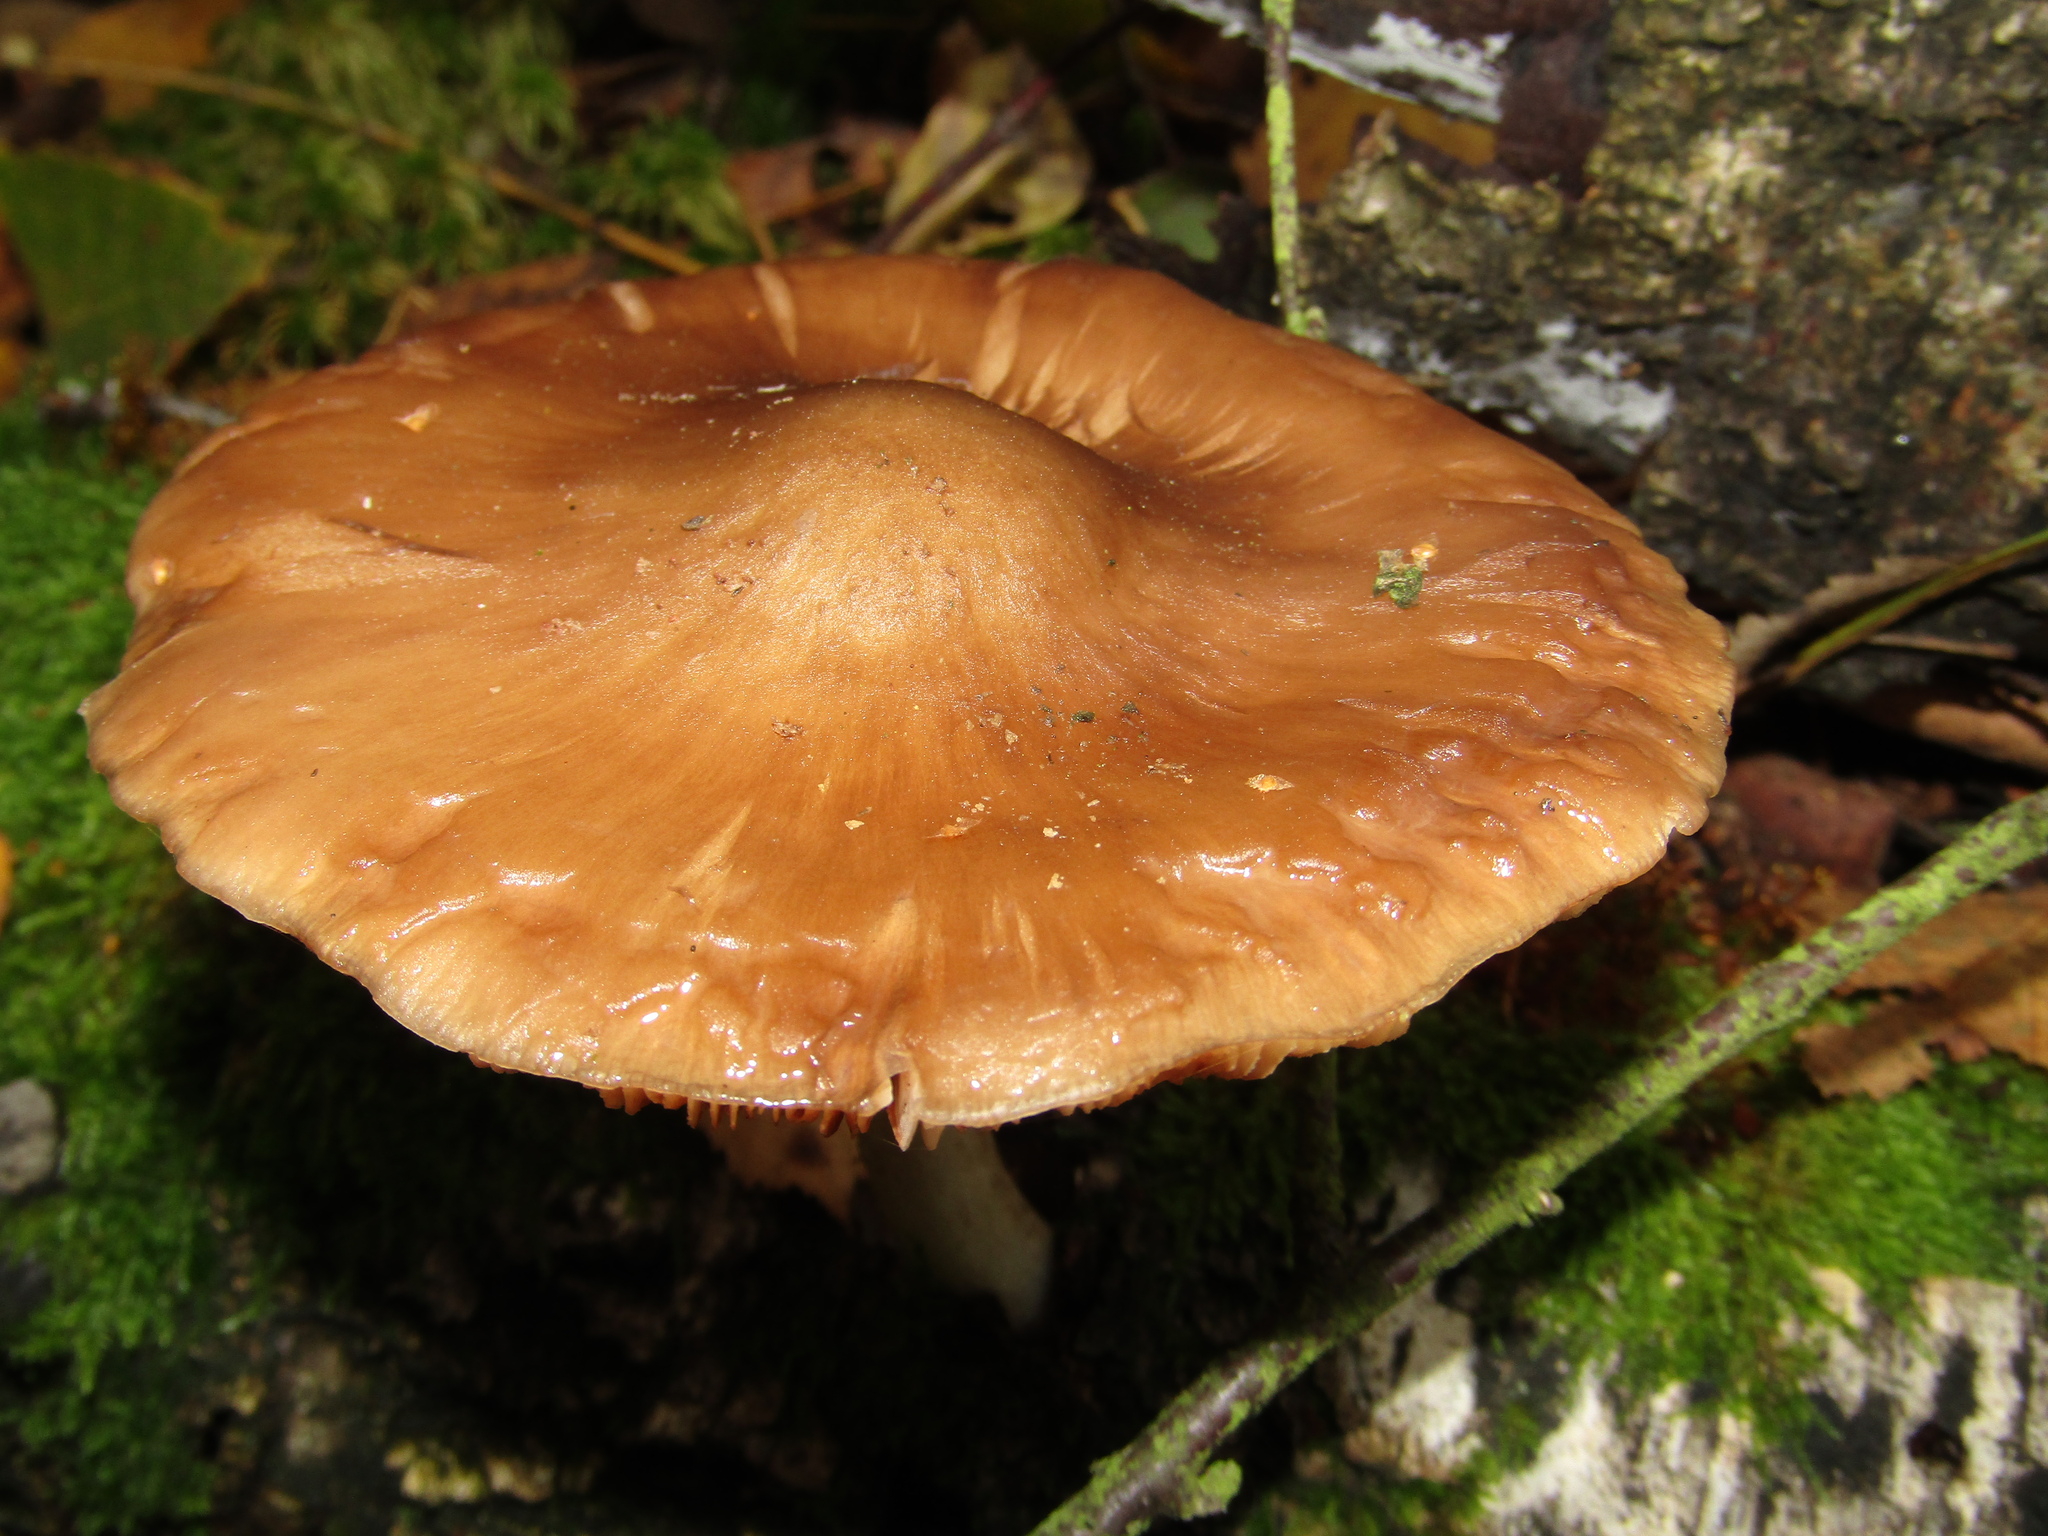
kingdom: Fungi
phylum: Basidiomycota
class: Agaricomycetes
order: Agaricales
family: Pluteaceae
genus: Pluteus
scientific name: Pluteus cervinus
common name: Deer shield
